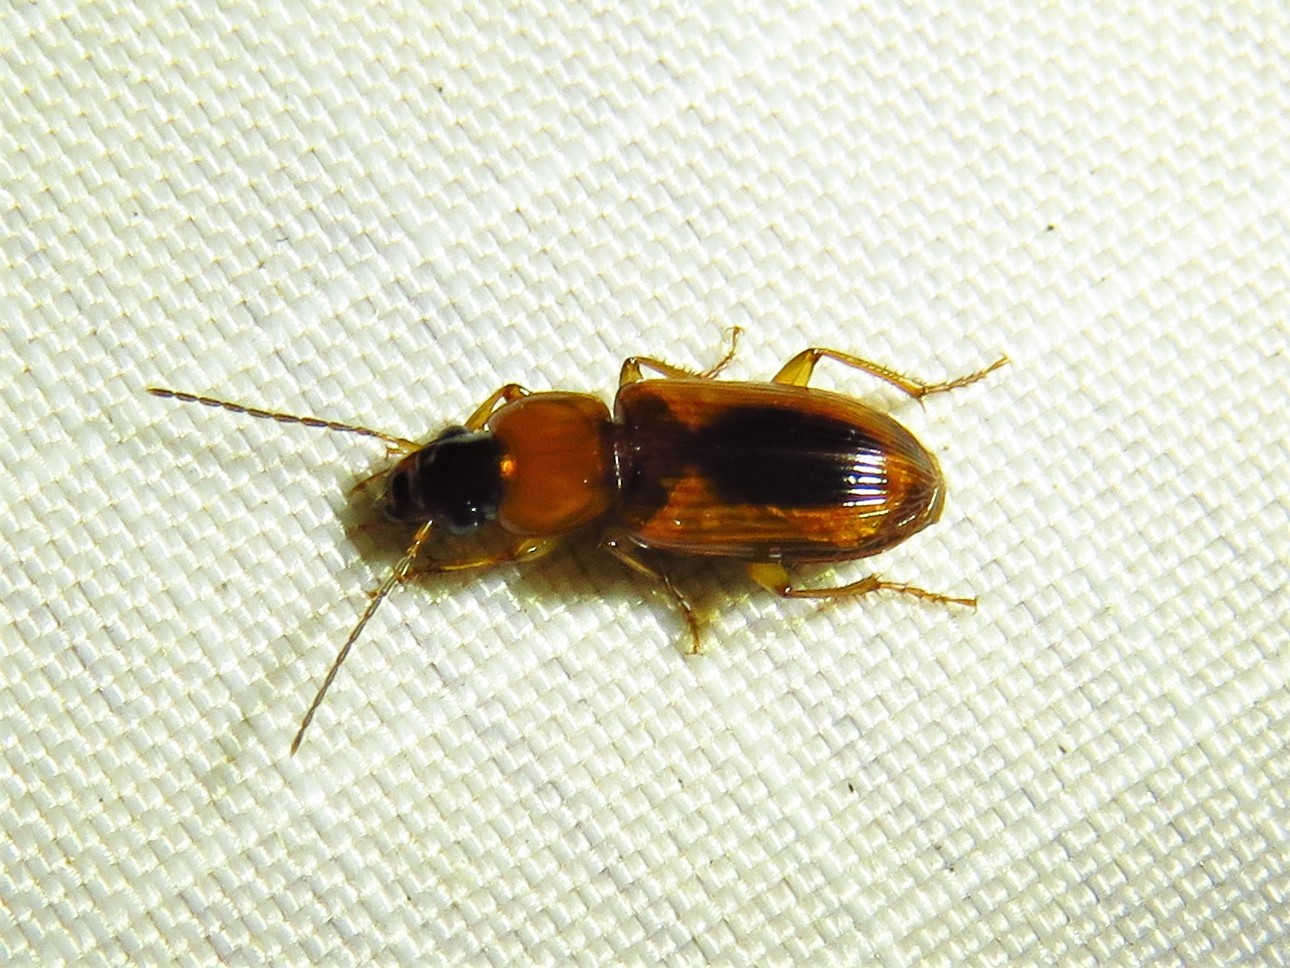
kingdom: Animalia
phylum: Arthropoda
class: Insecta
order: Coleoptera
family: Carabidae
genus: Stenolophus
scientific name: Stenolophus dissimilis
